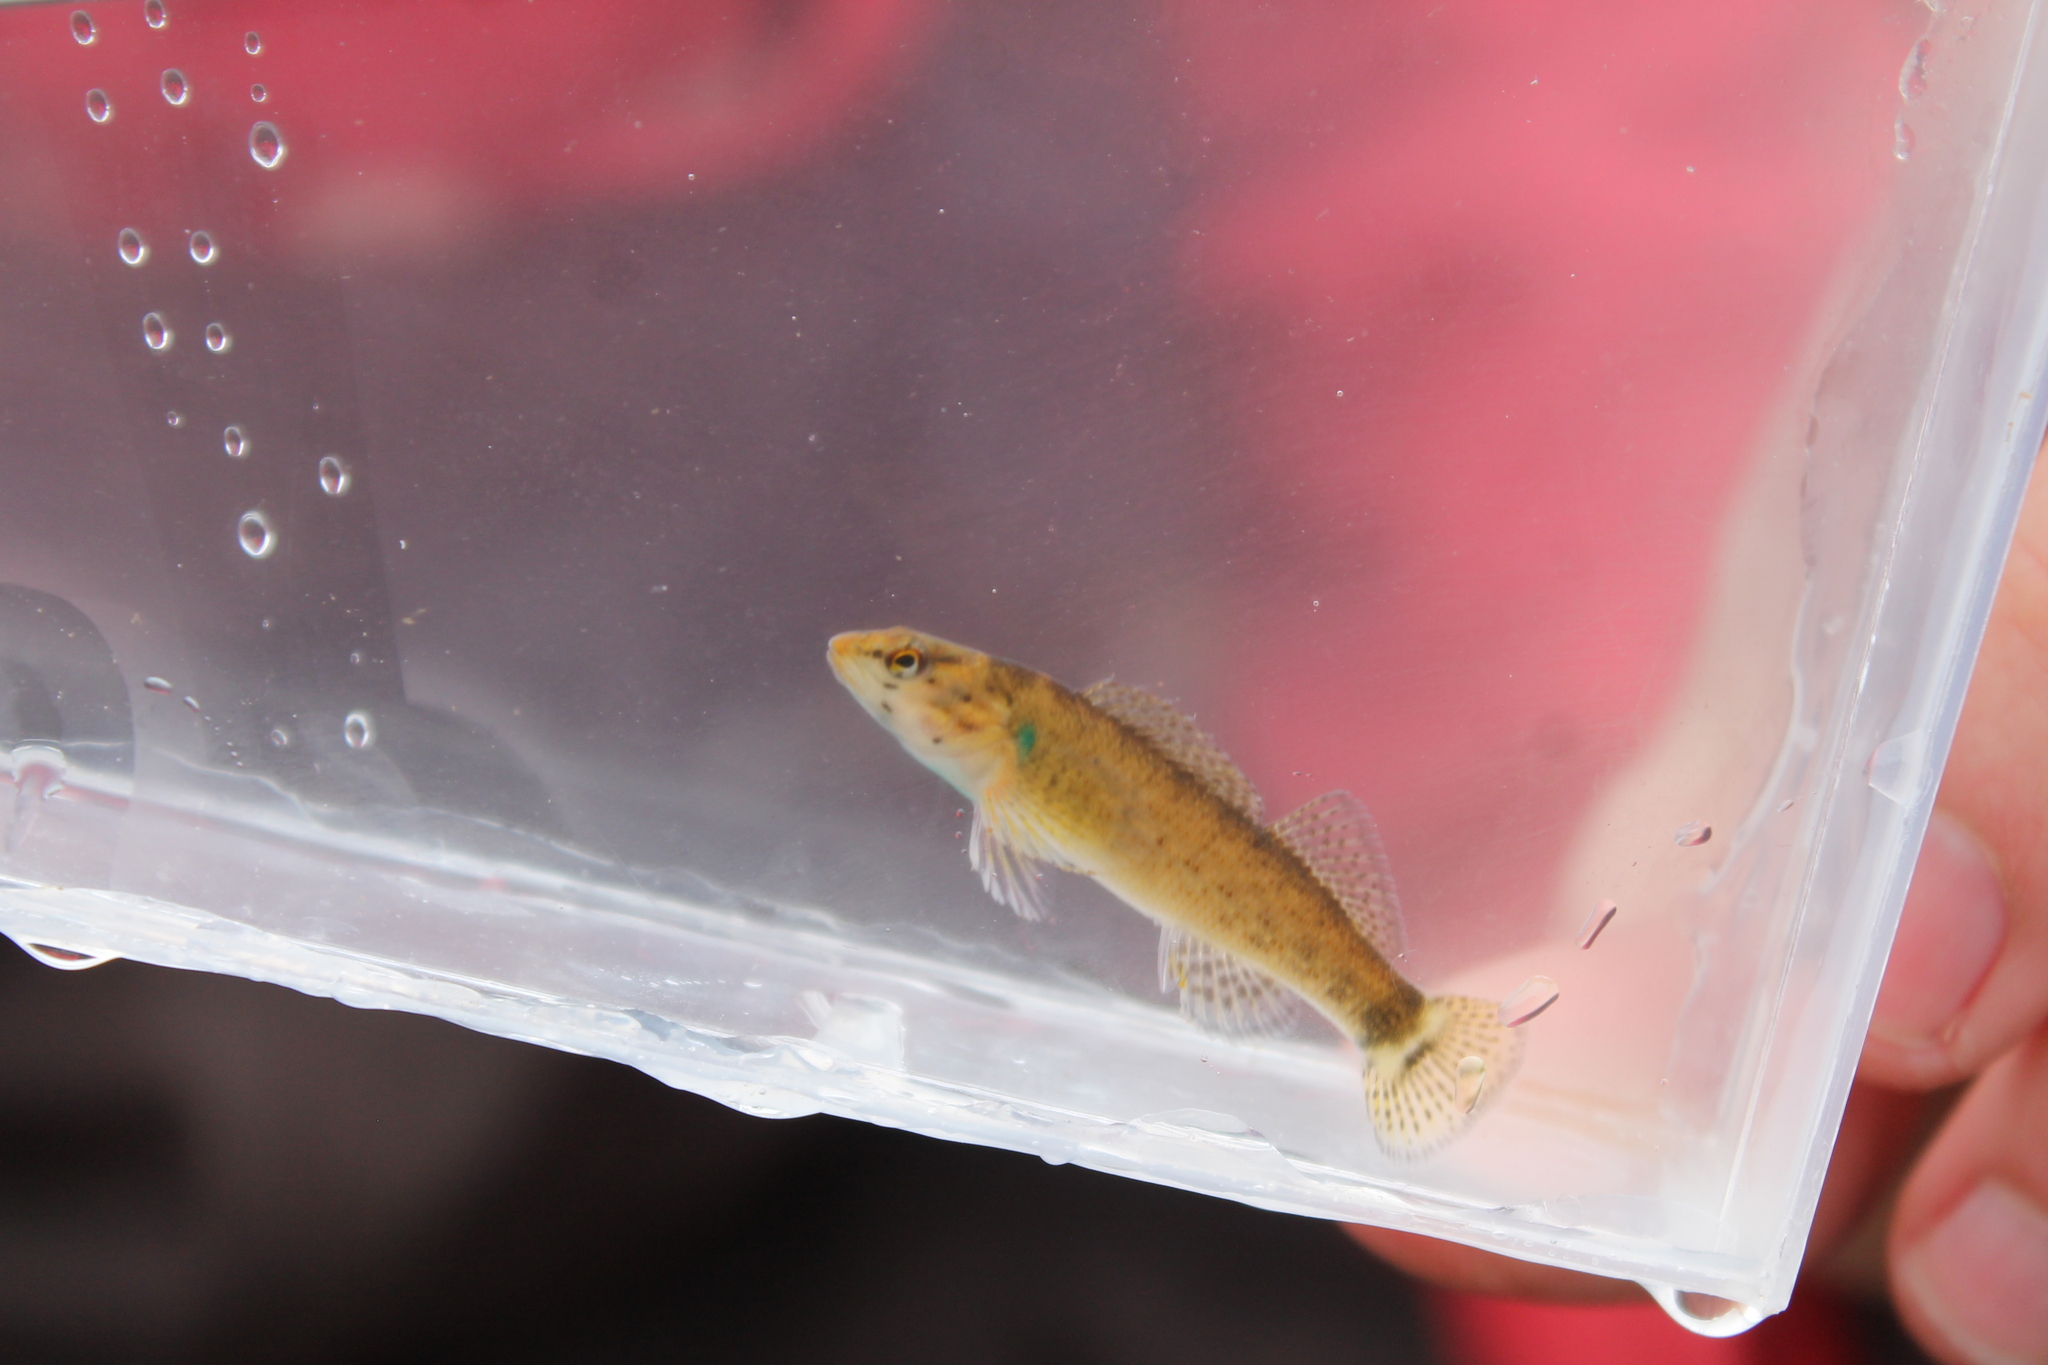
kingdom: Animalia
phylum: Chordata
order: Perciformes
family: Percidae
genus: Etheostoma
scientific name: Etheostoma rufilineatum
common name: Redline darter
